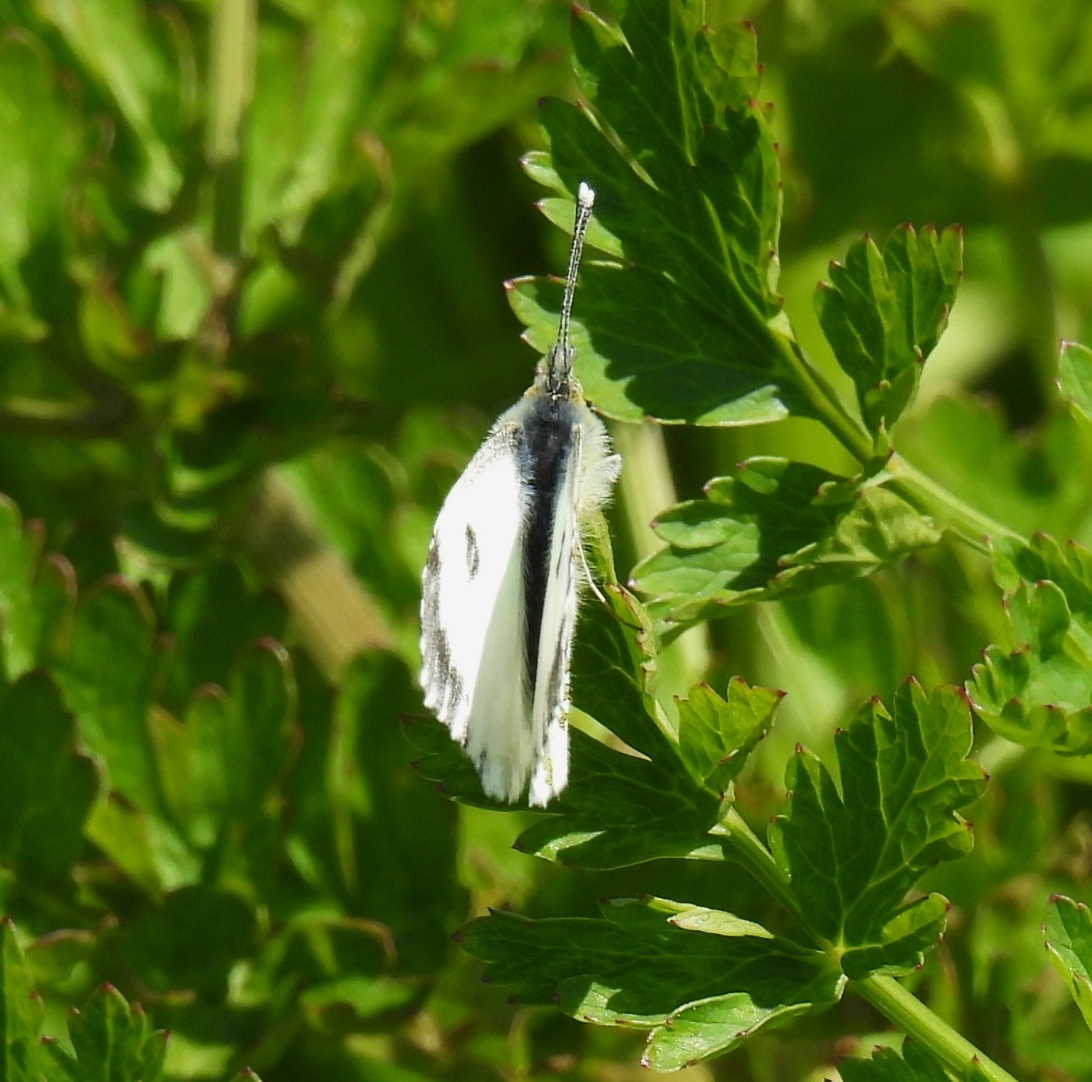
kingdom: Animalia
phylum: Arthropoda
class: Insecta
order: Lepidoptera
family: Pieridae
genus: Anthocharis
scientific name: Anthocharis cardamines
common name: Orange-tip
